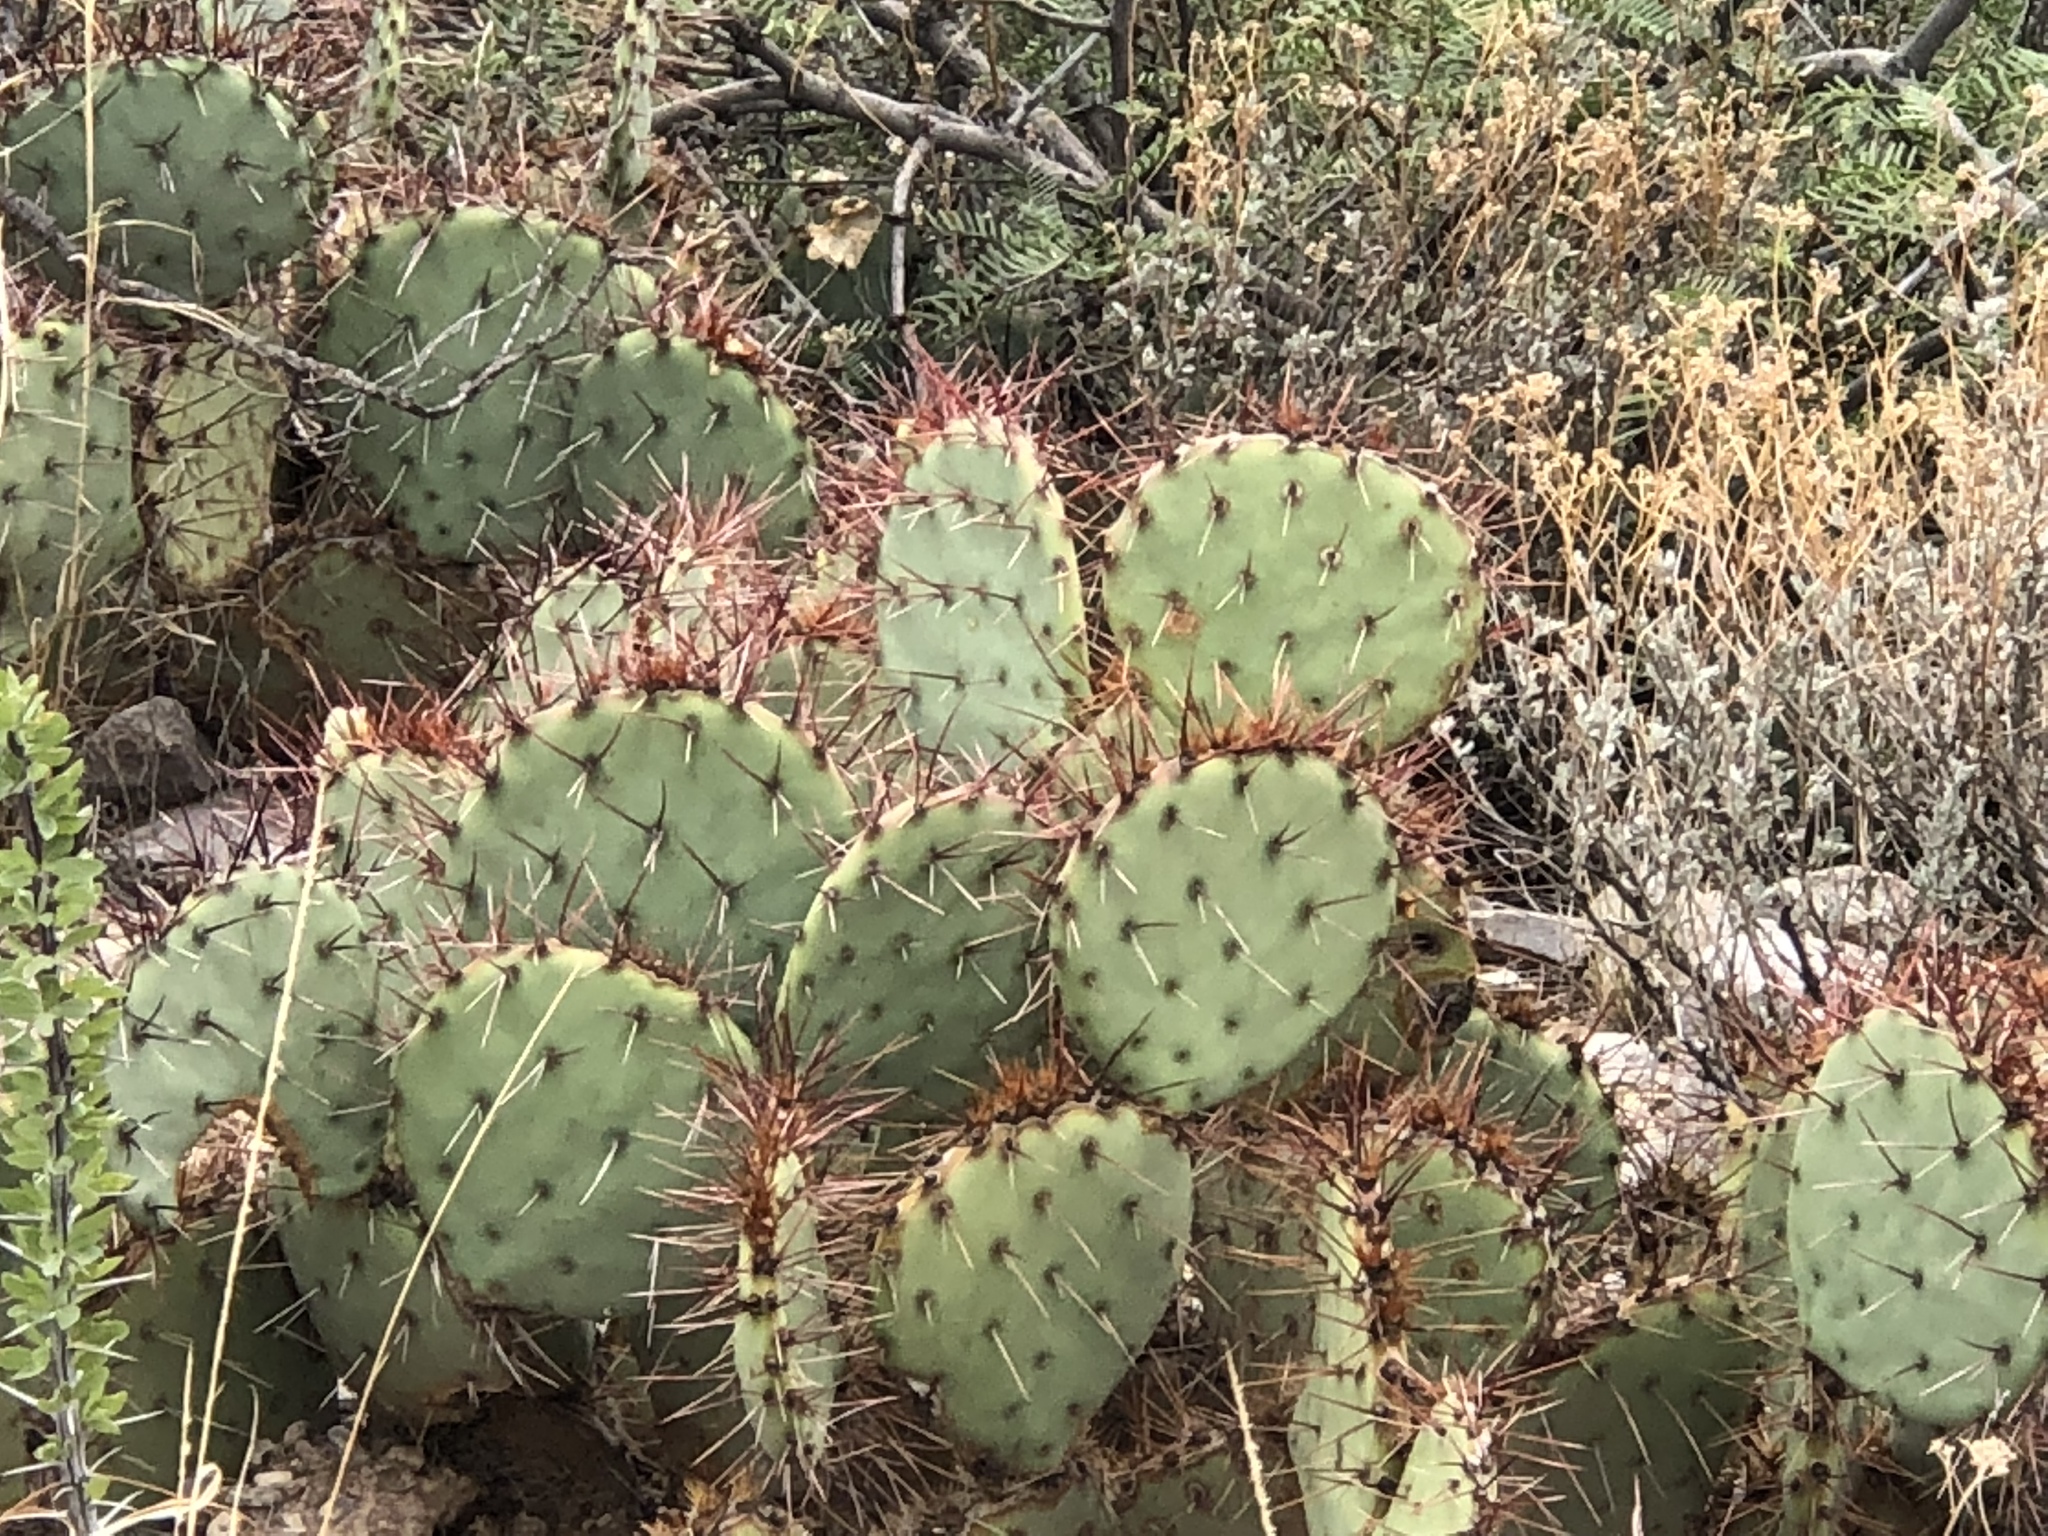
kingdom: Plantae
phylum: Tracheophyta
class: Magnoliopsida
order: Caryophyllales
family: Cactaceae
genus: Opuntia
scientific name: Opuntia phaeacantha
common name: New mexico prickly-pear
